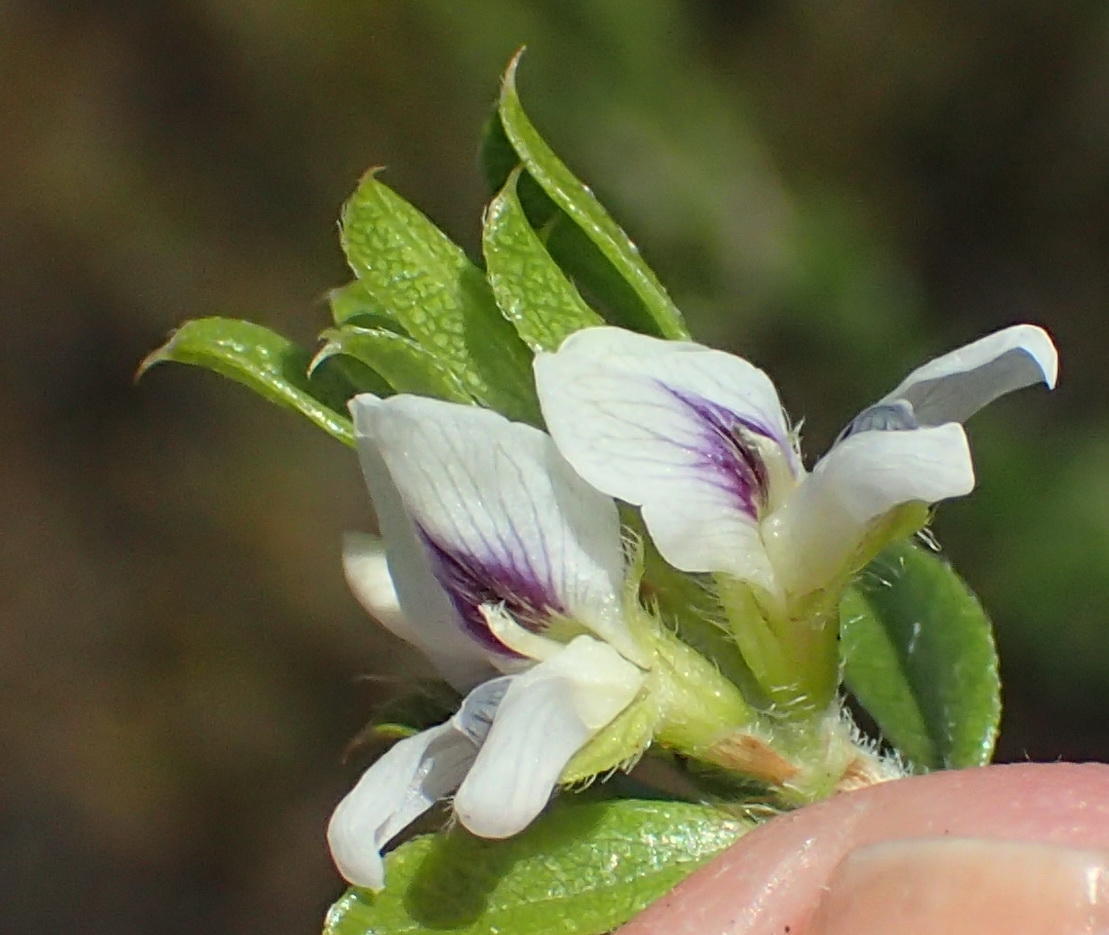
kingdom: Plantae
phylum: Tracheophyta
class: Magnoliopsida
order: Fabales
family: Fabaceae
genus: Psoralea
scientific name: Psoralea heterosepala
